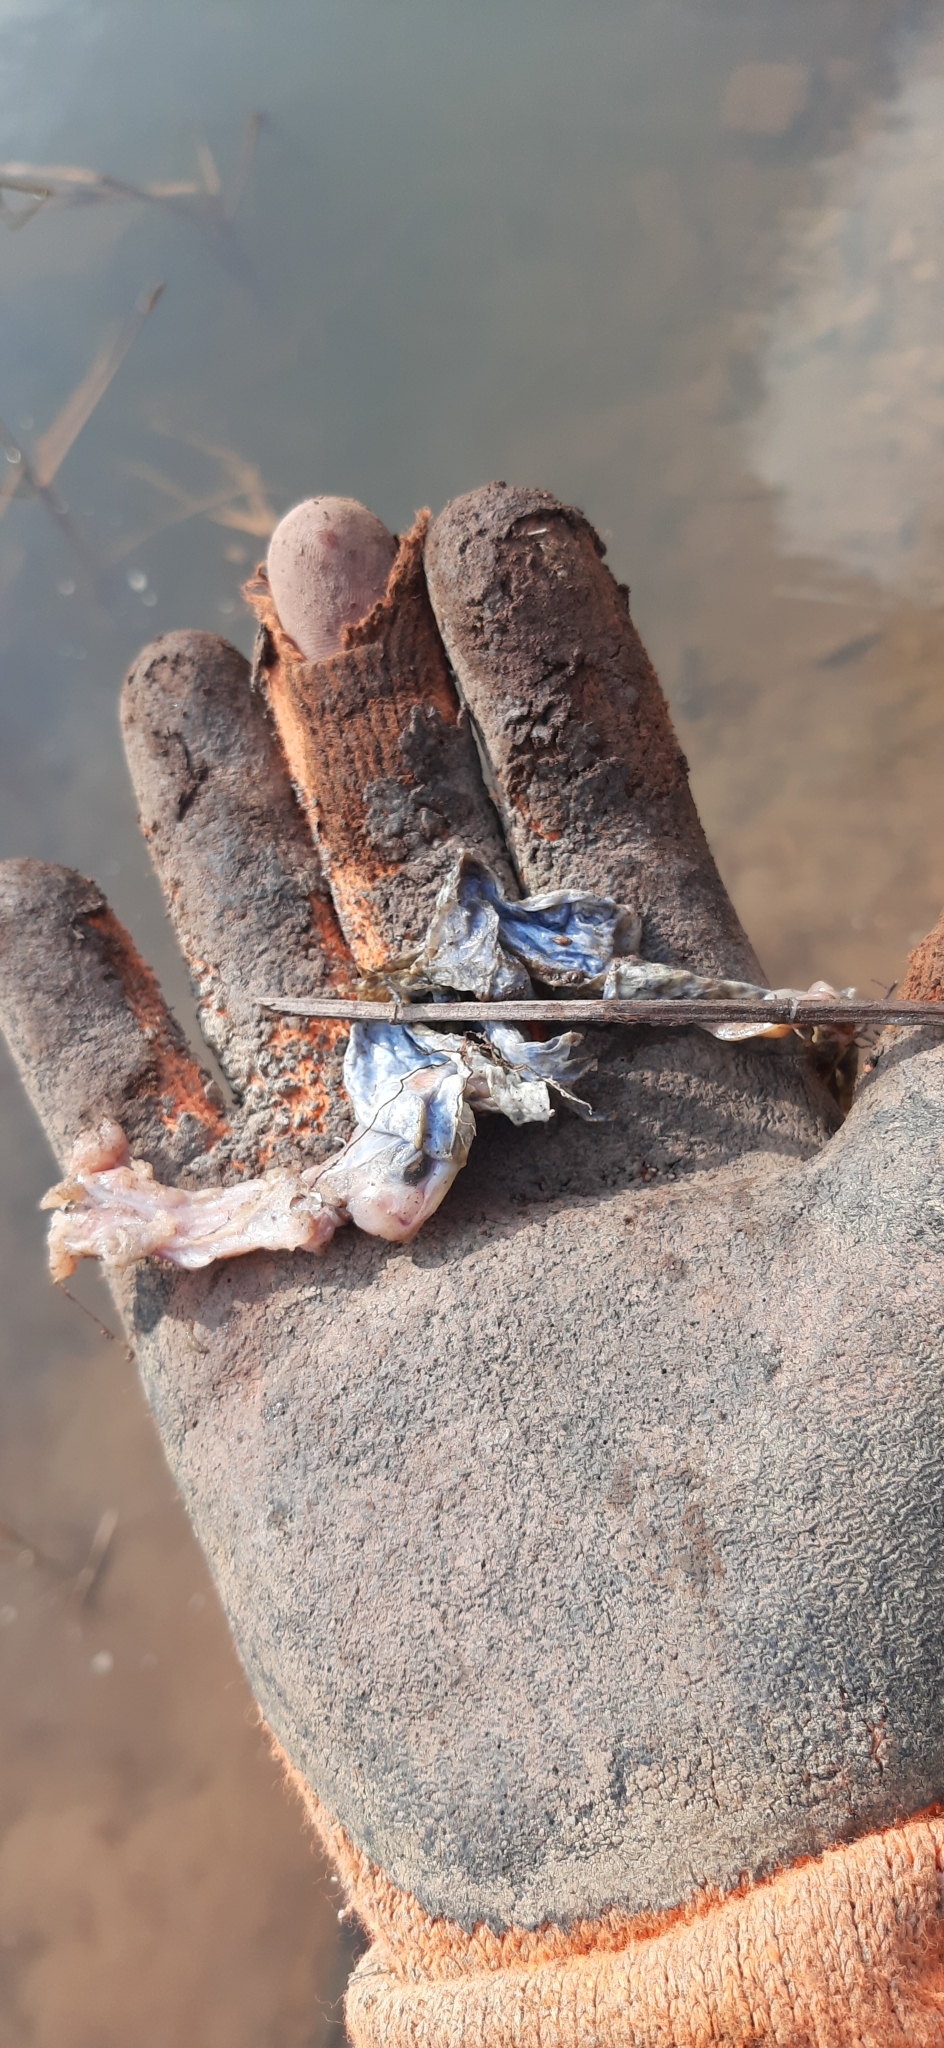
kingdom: Animalia
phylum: Chordata
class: Amphibia
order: Anura
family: Bufonidae
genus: Bufo
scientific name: Bufo bufo
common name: Common toad
